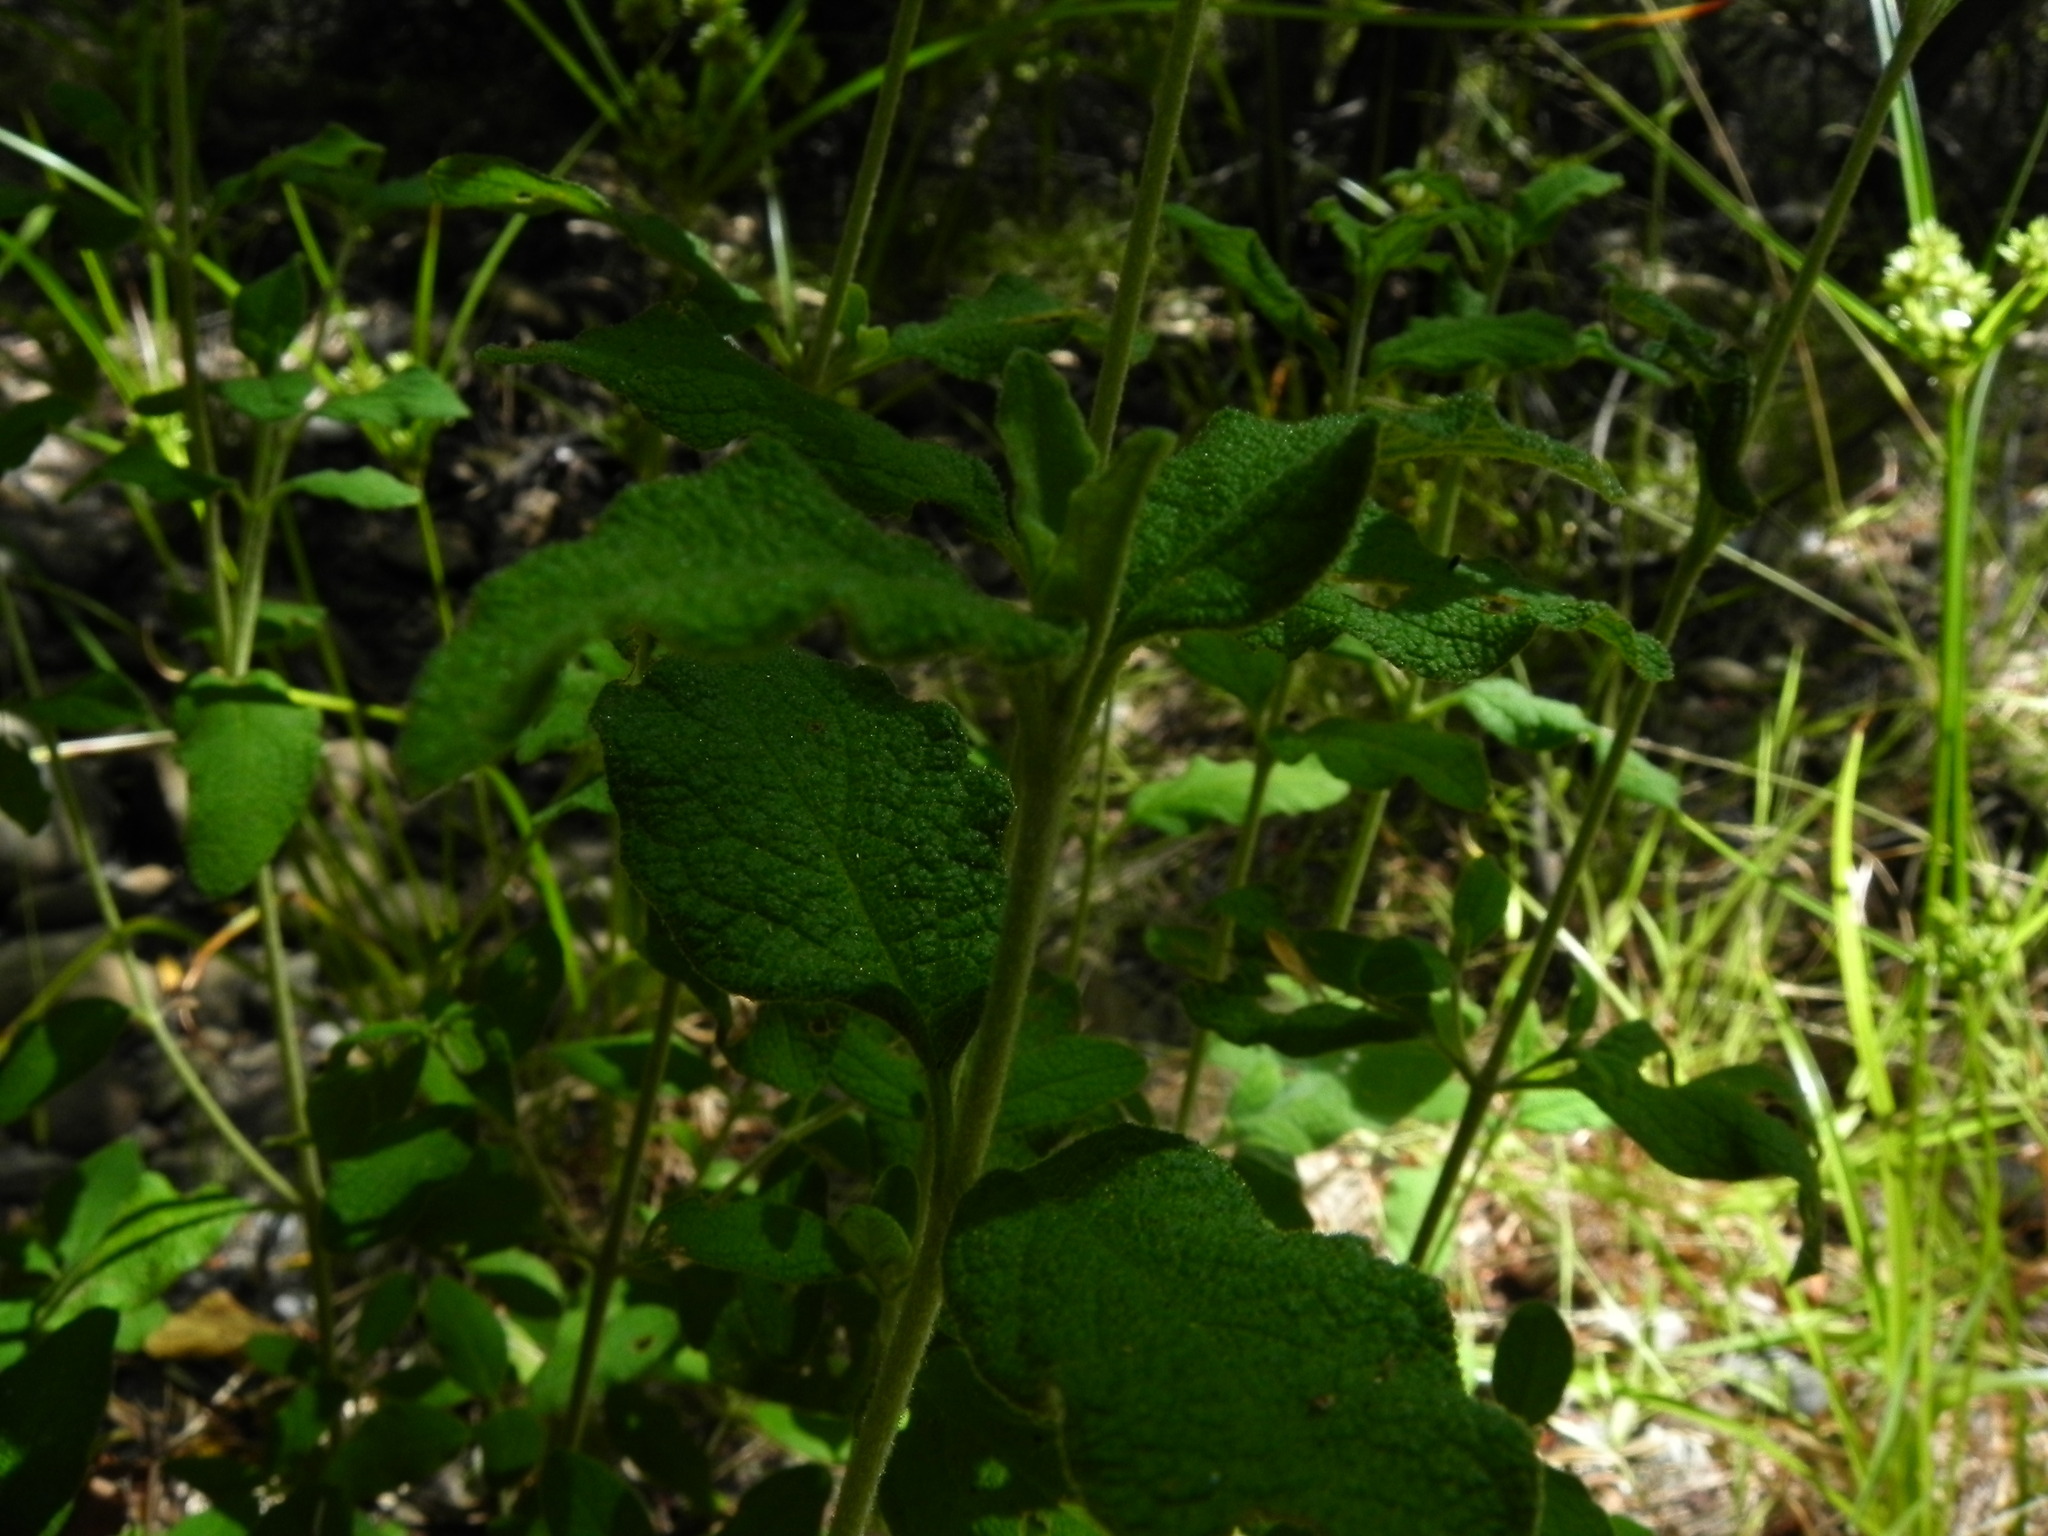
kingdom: Plantae
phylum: Tracheophyta
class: Magnoliopsida
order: Malvales
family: Cistaceae
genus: Cistus
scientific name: Cistus salviifolius
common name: Salvia cistus
